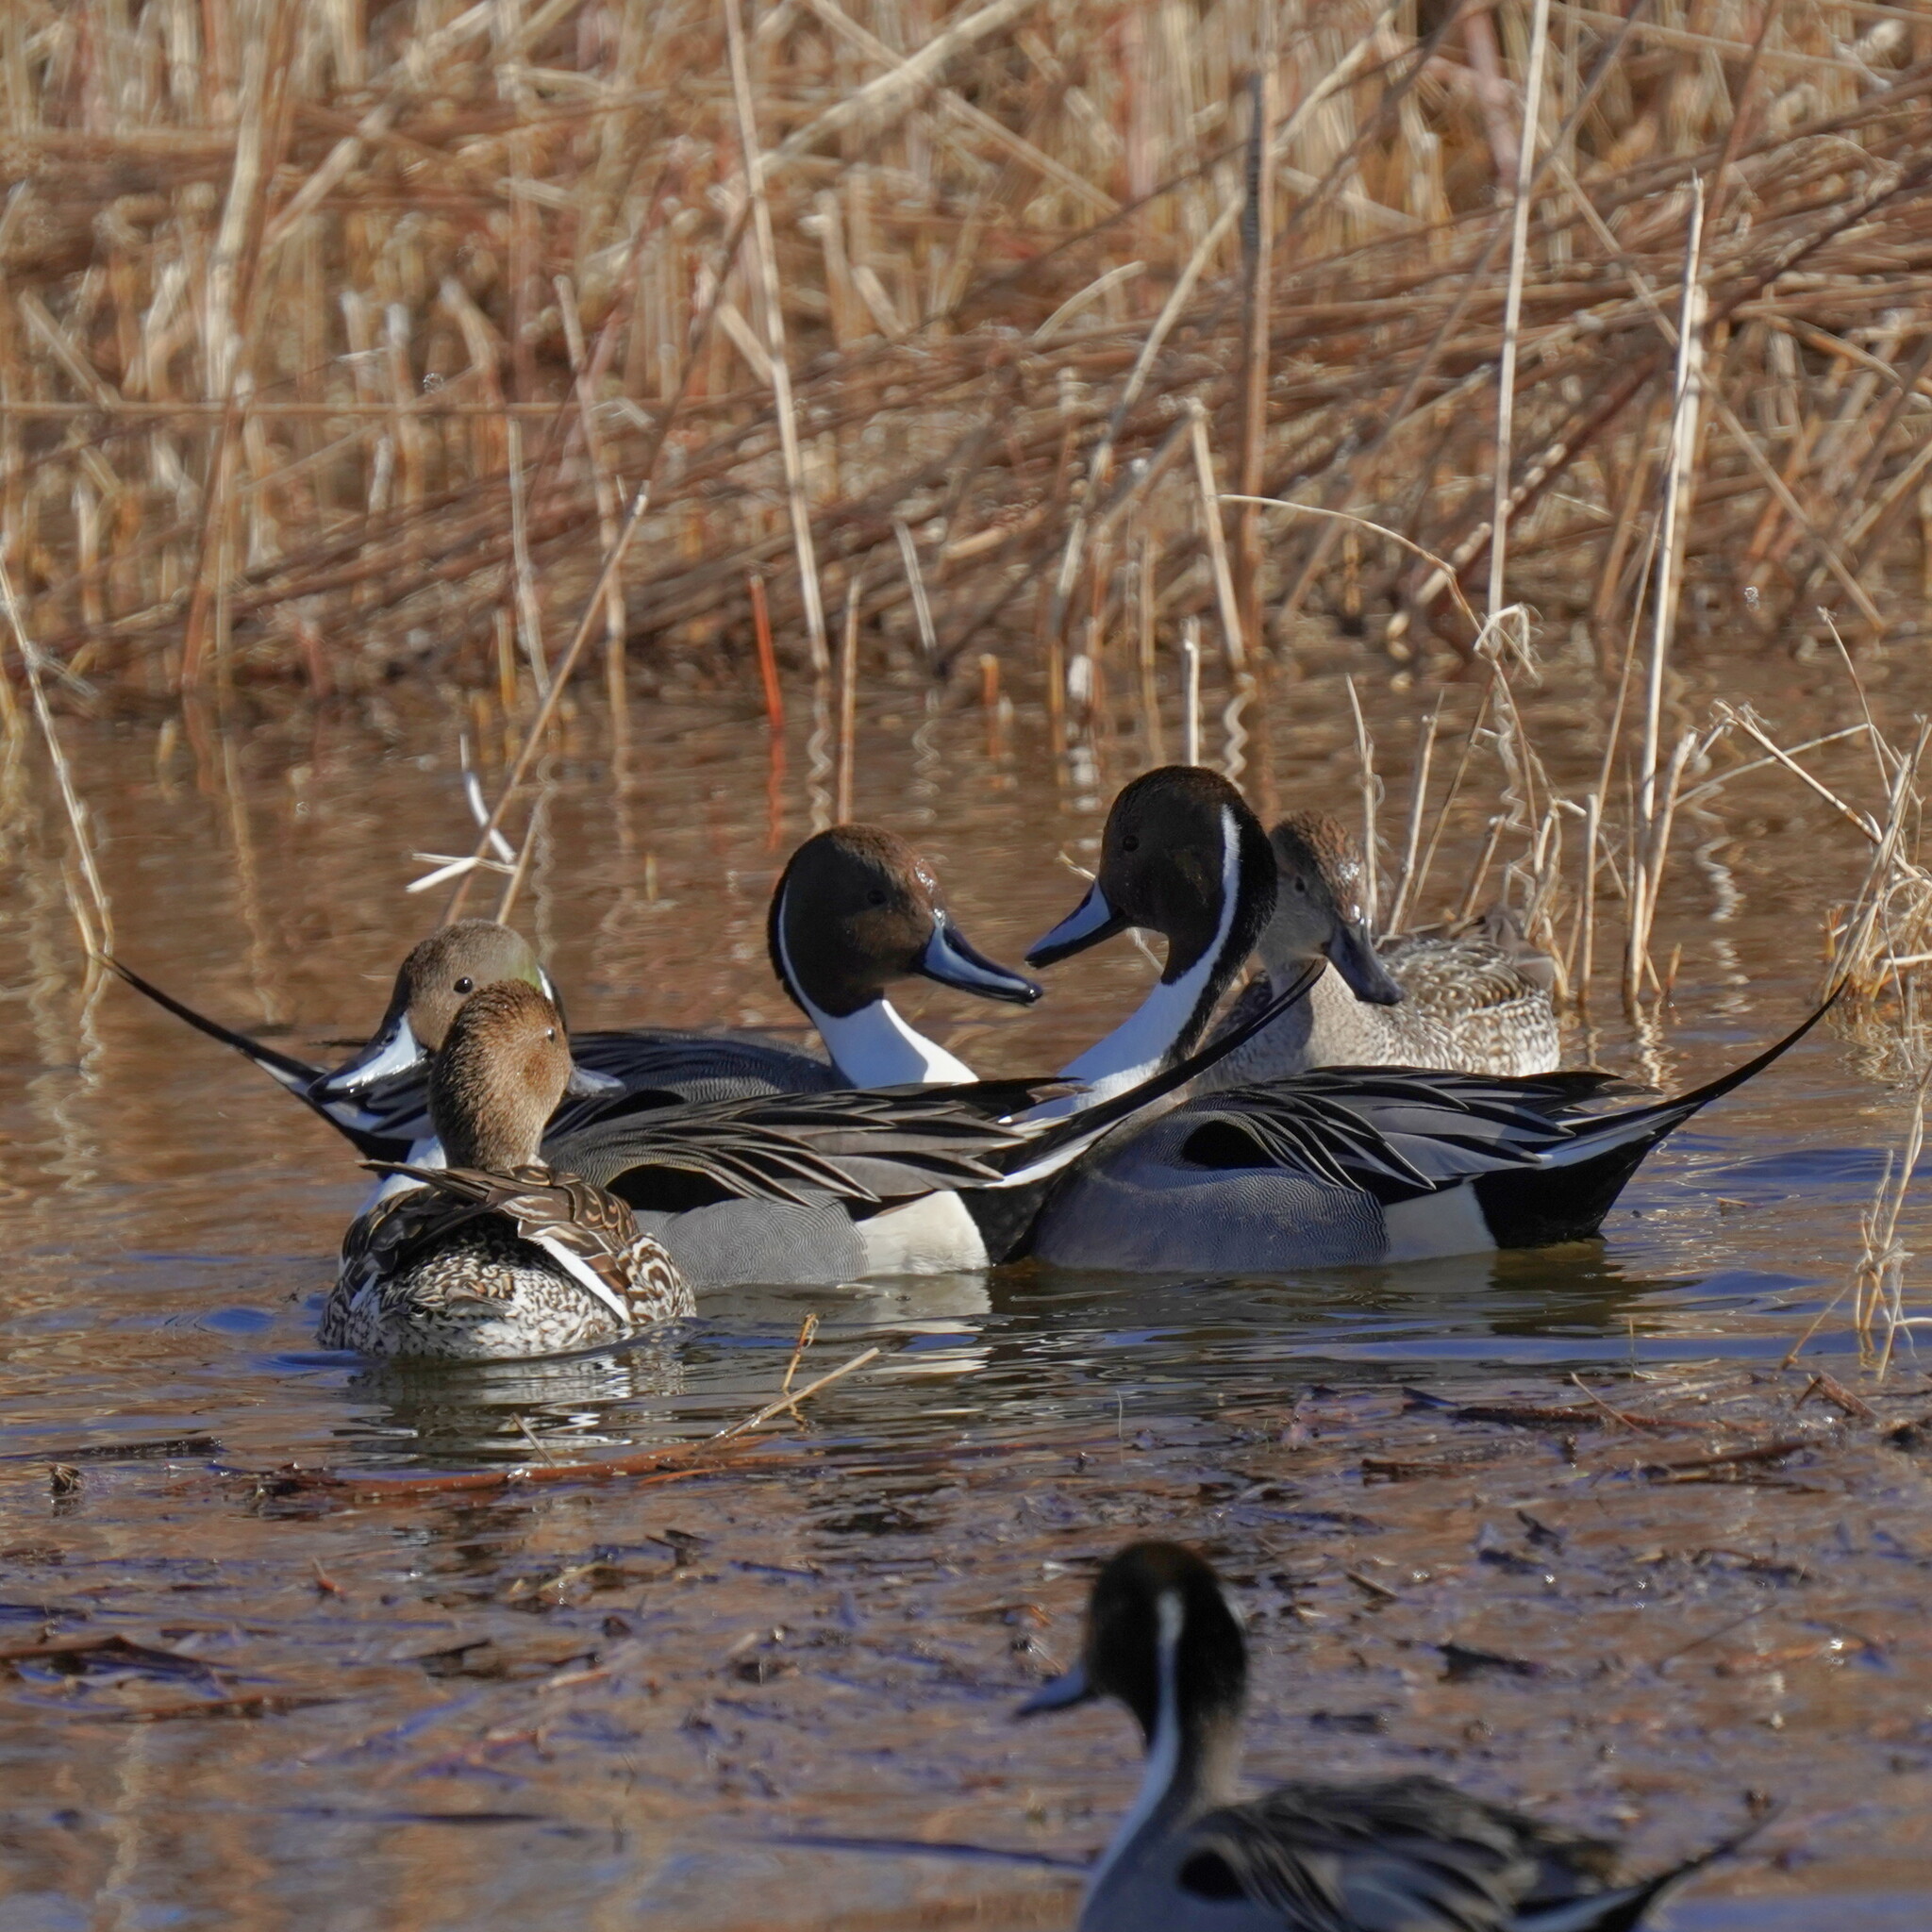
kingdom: Animalia
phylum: Chordata
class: Aves
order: Anseriformes
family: Anatidae
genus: Anas
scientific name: Anas acuta
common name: Northern pintail
